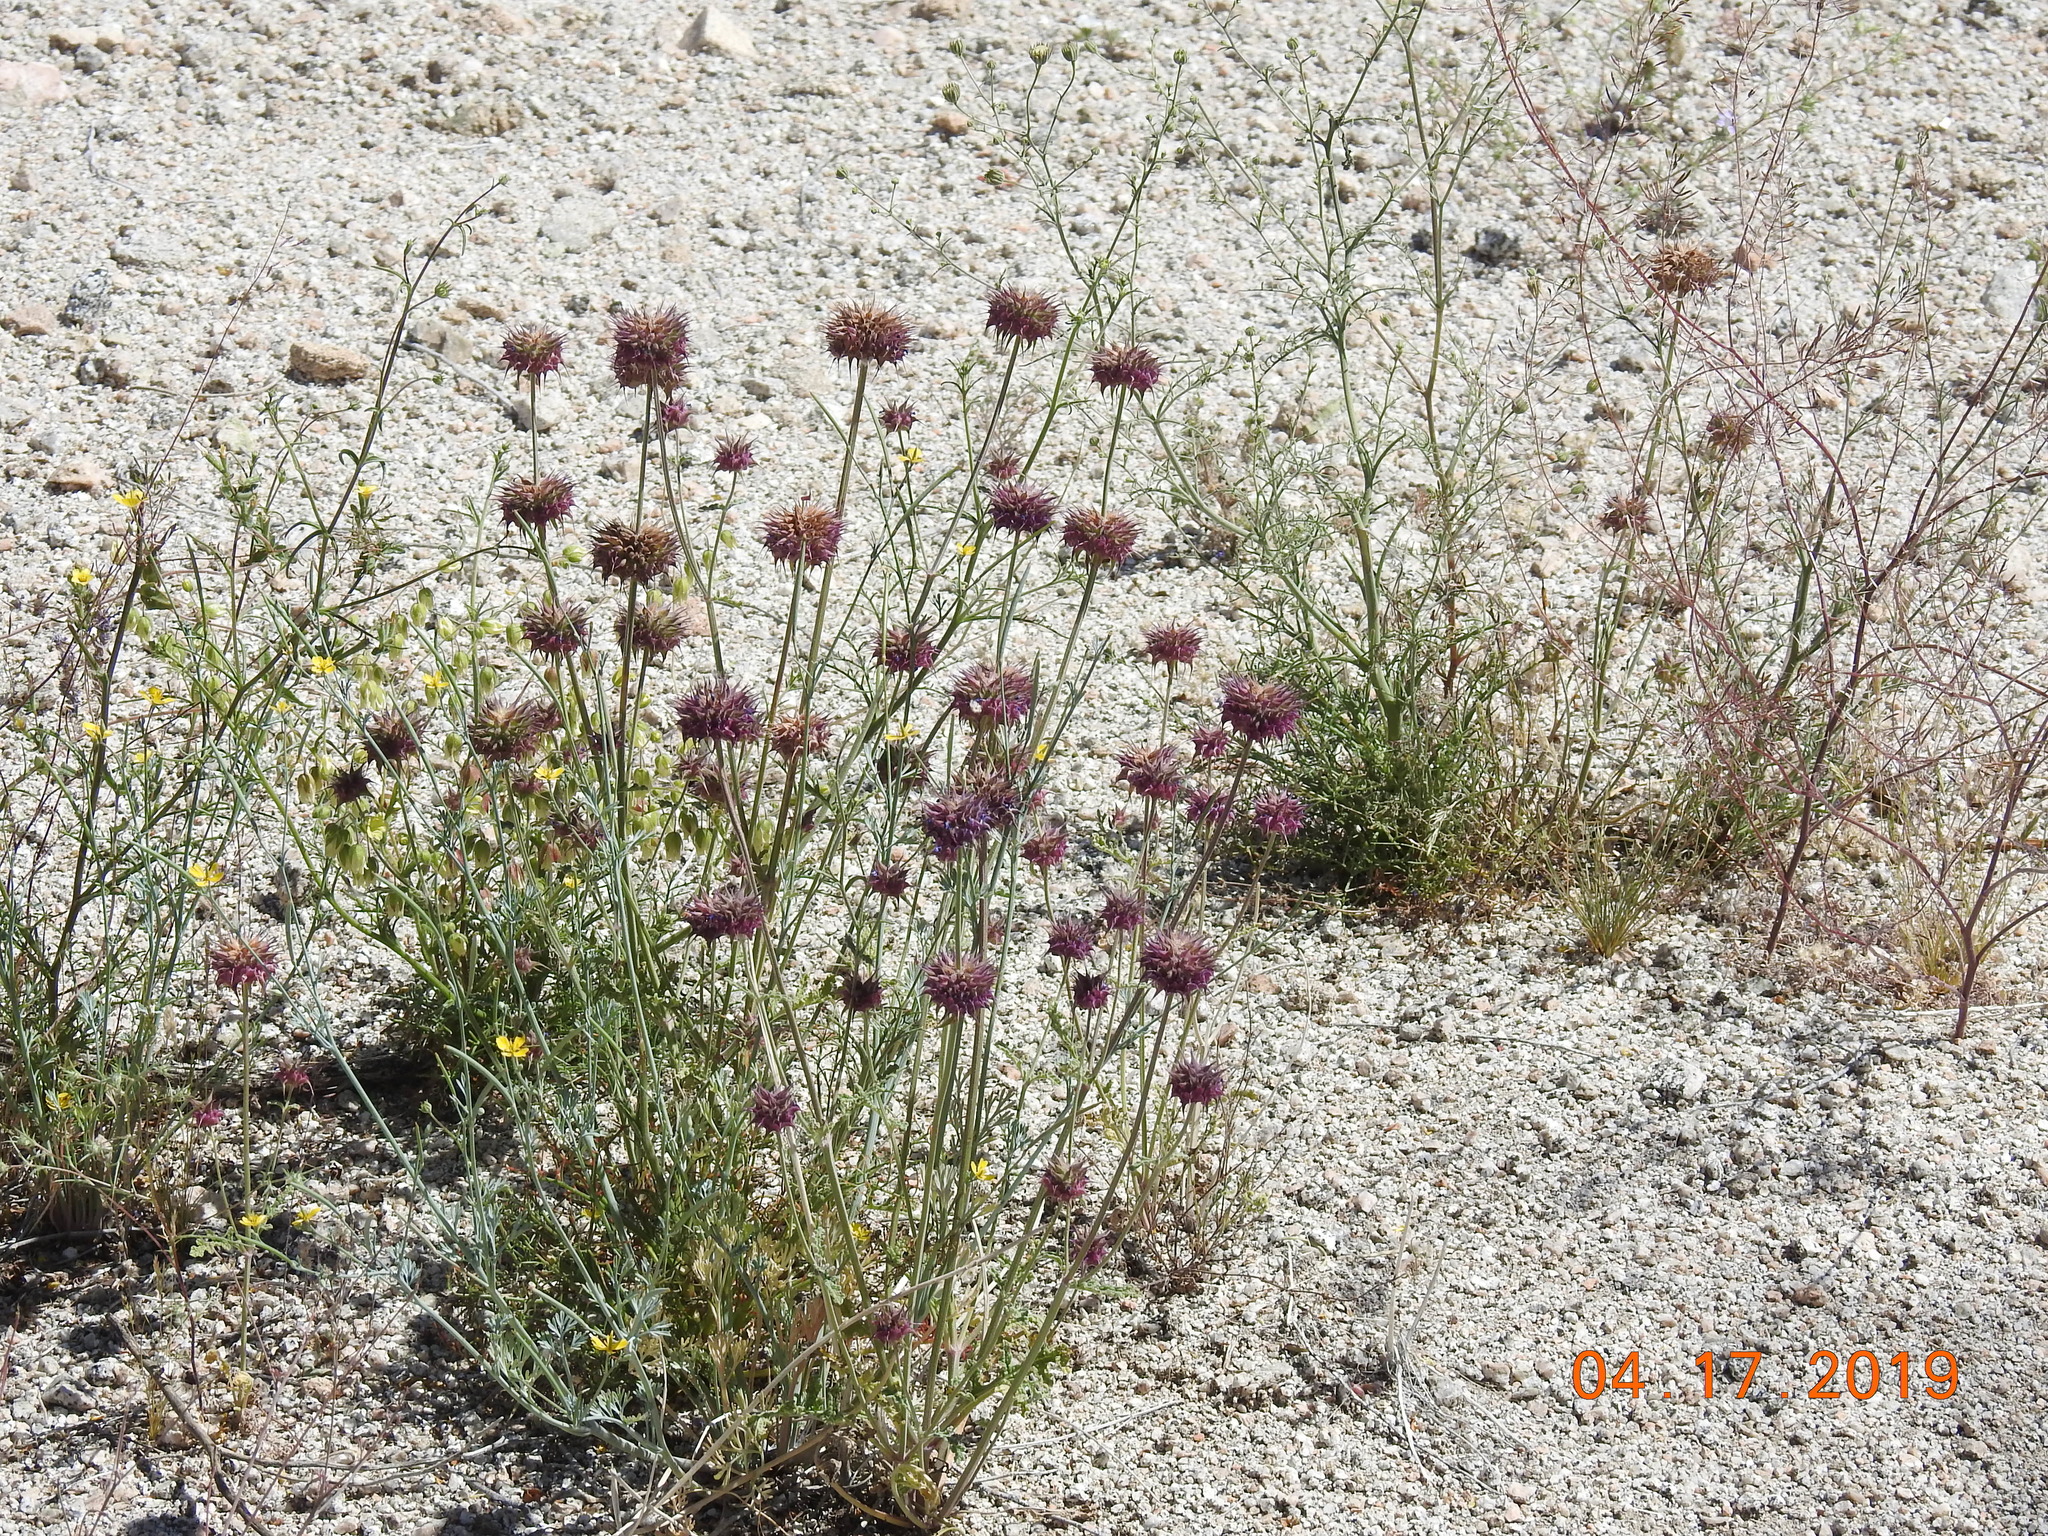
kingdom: Plantae
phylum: Tracheophyta
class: Magnoliopsida
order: Lamiales
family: Lamiaceae
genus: Salvia
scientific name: Salvia columbariae
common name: Chia
